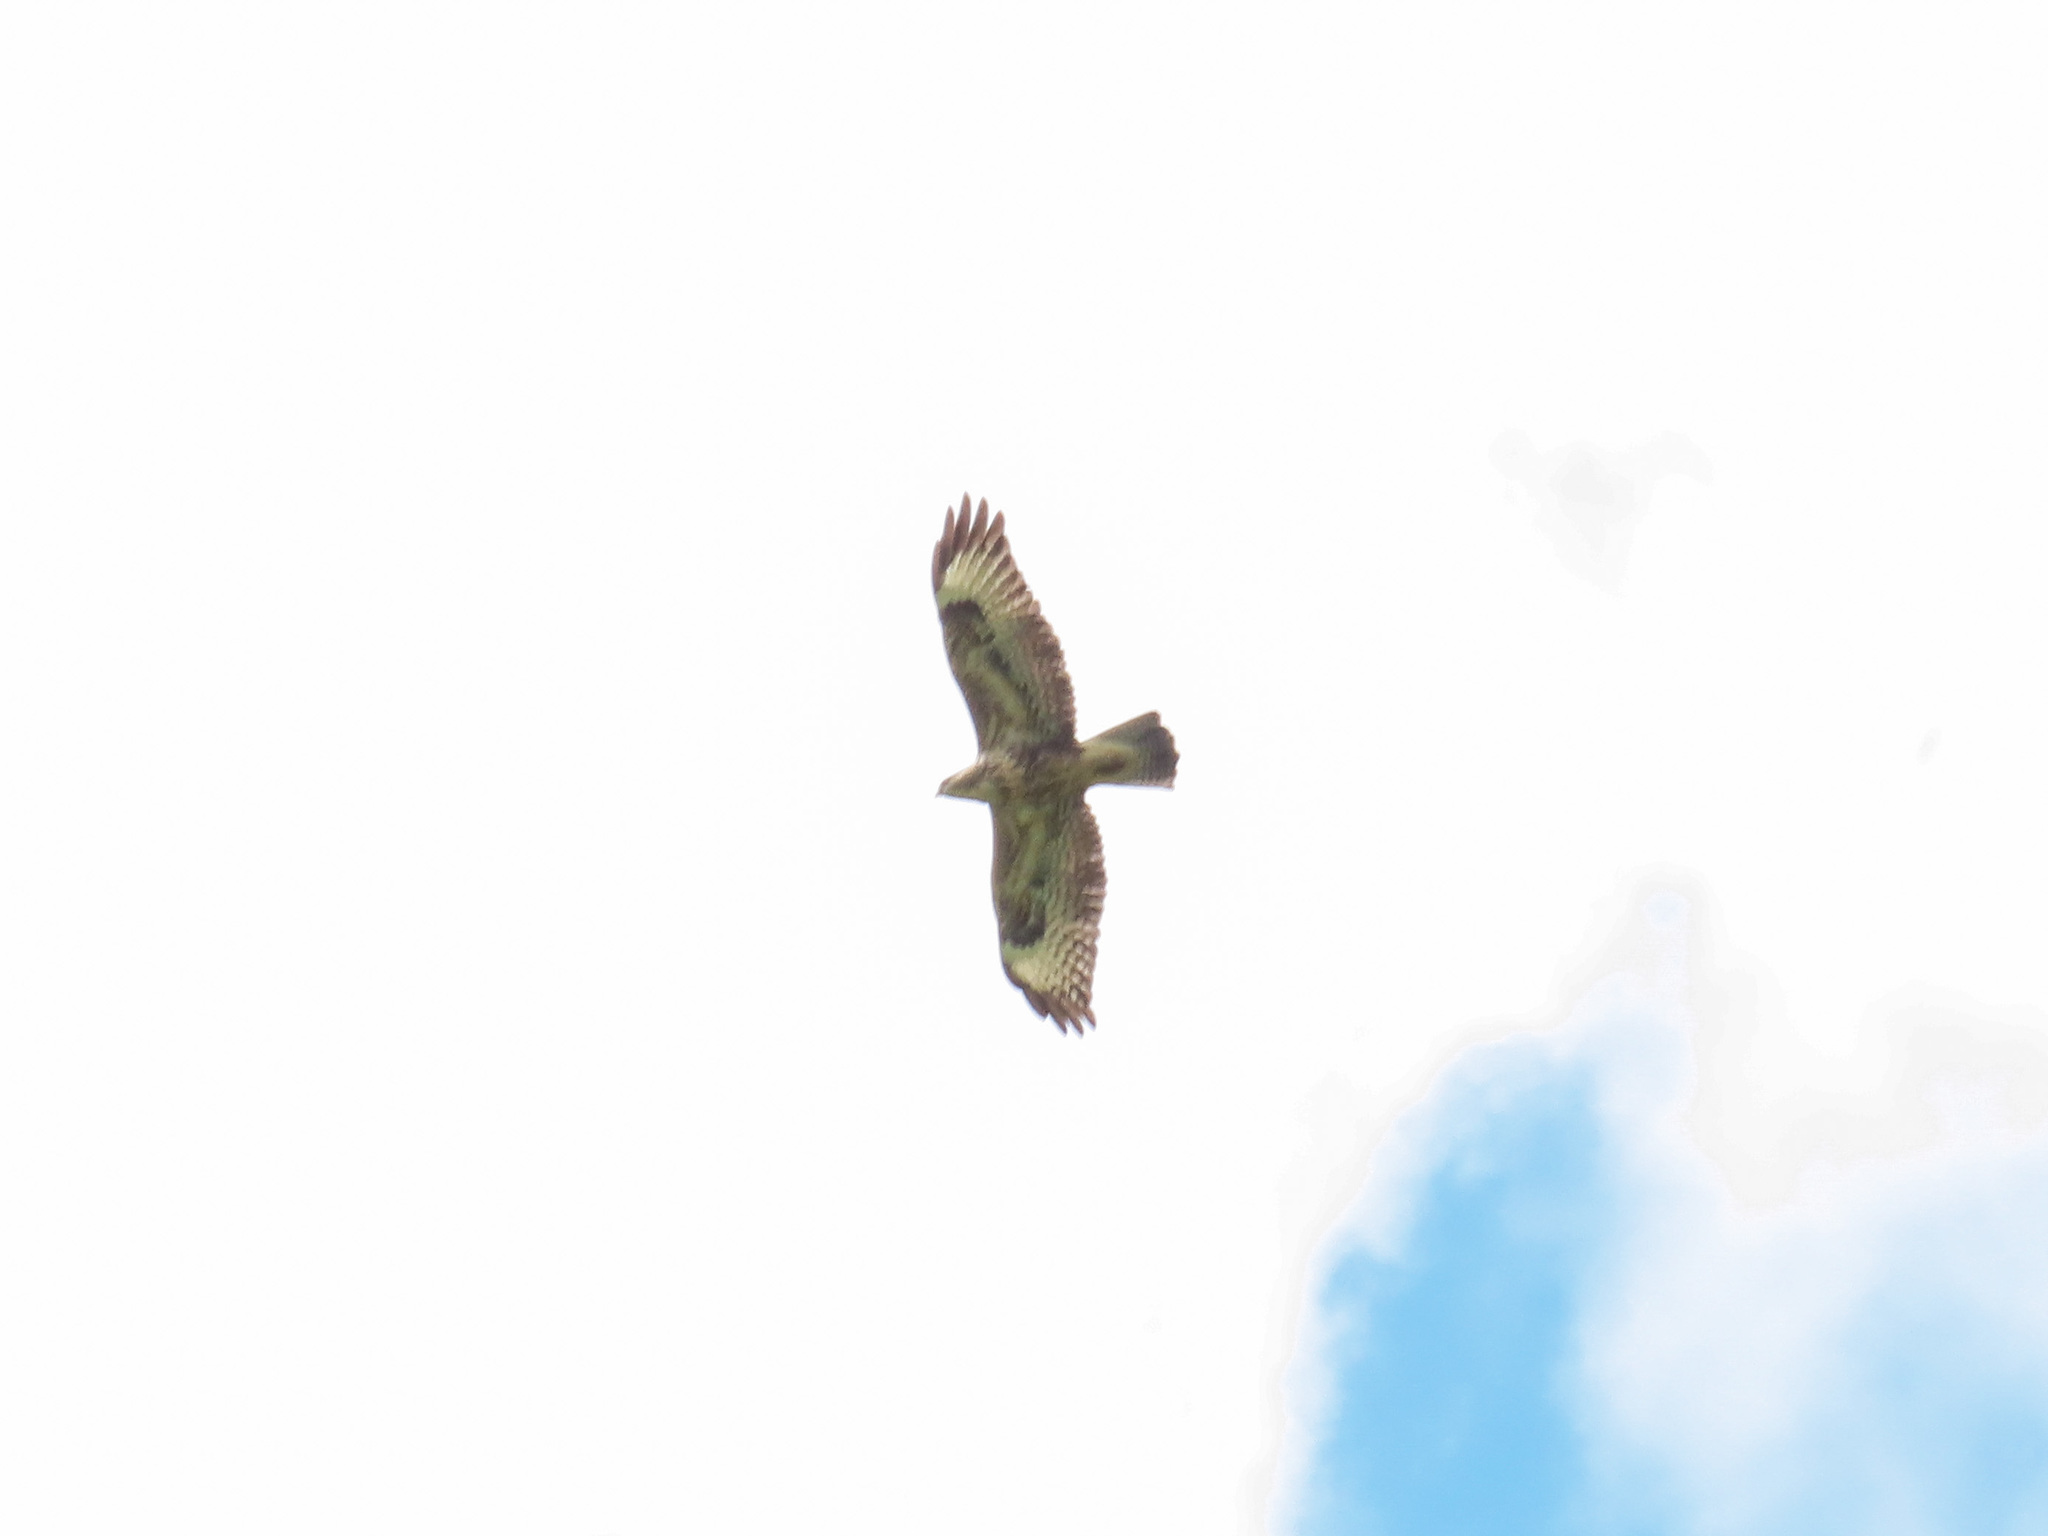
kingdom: Animalia
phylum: Chordata
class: Aves
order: Accipitriformes
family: Accipitridae
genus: Buteo
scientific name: Buteo buteo
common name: Common buzzard
